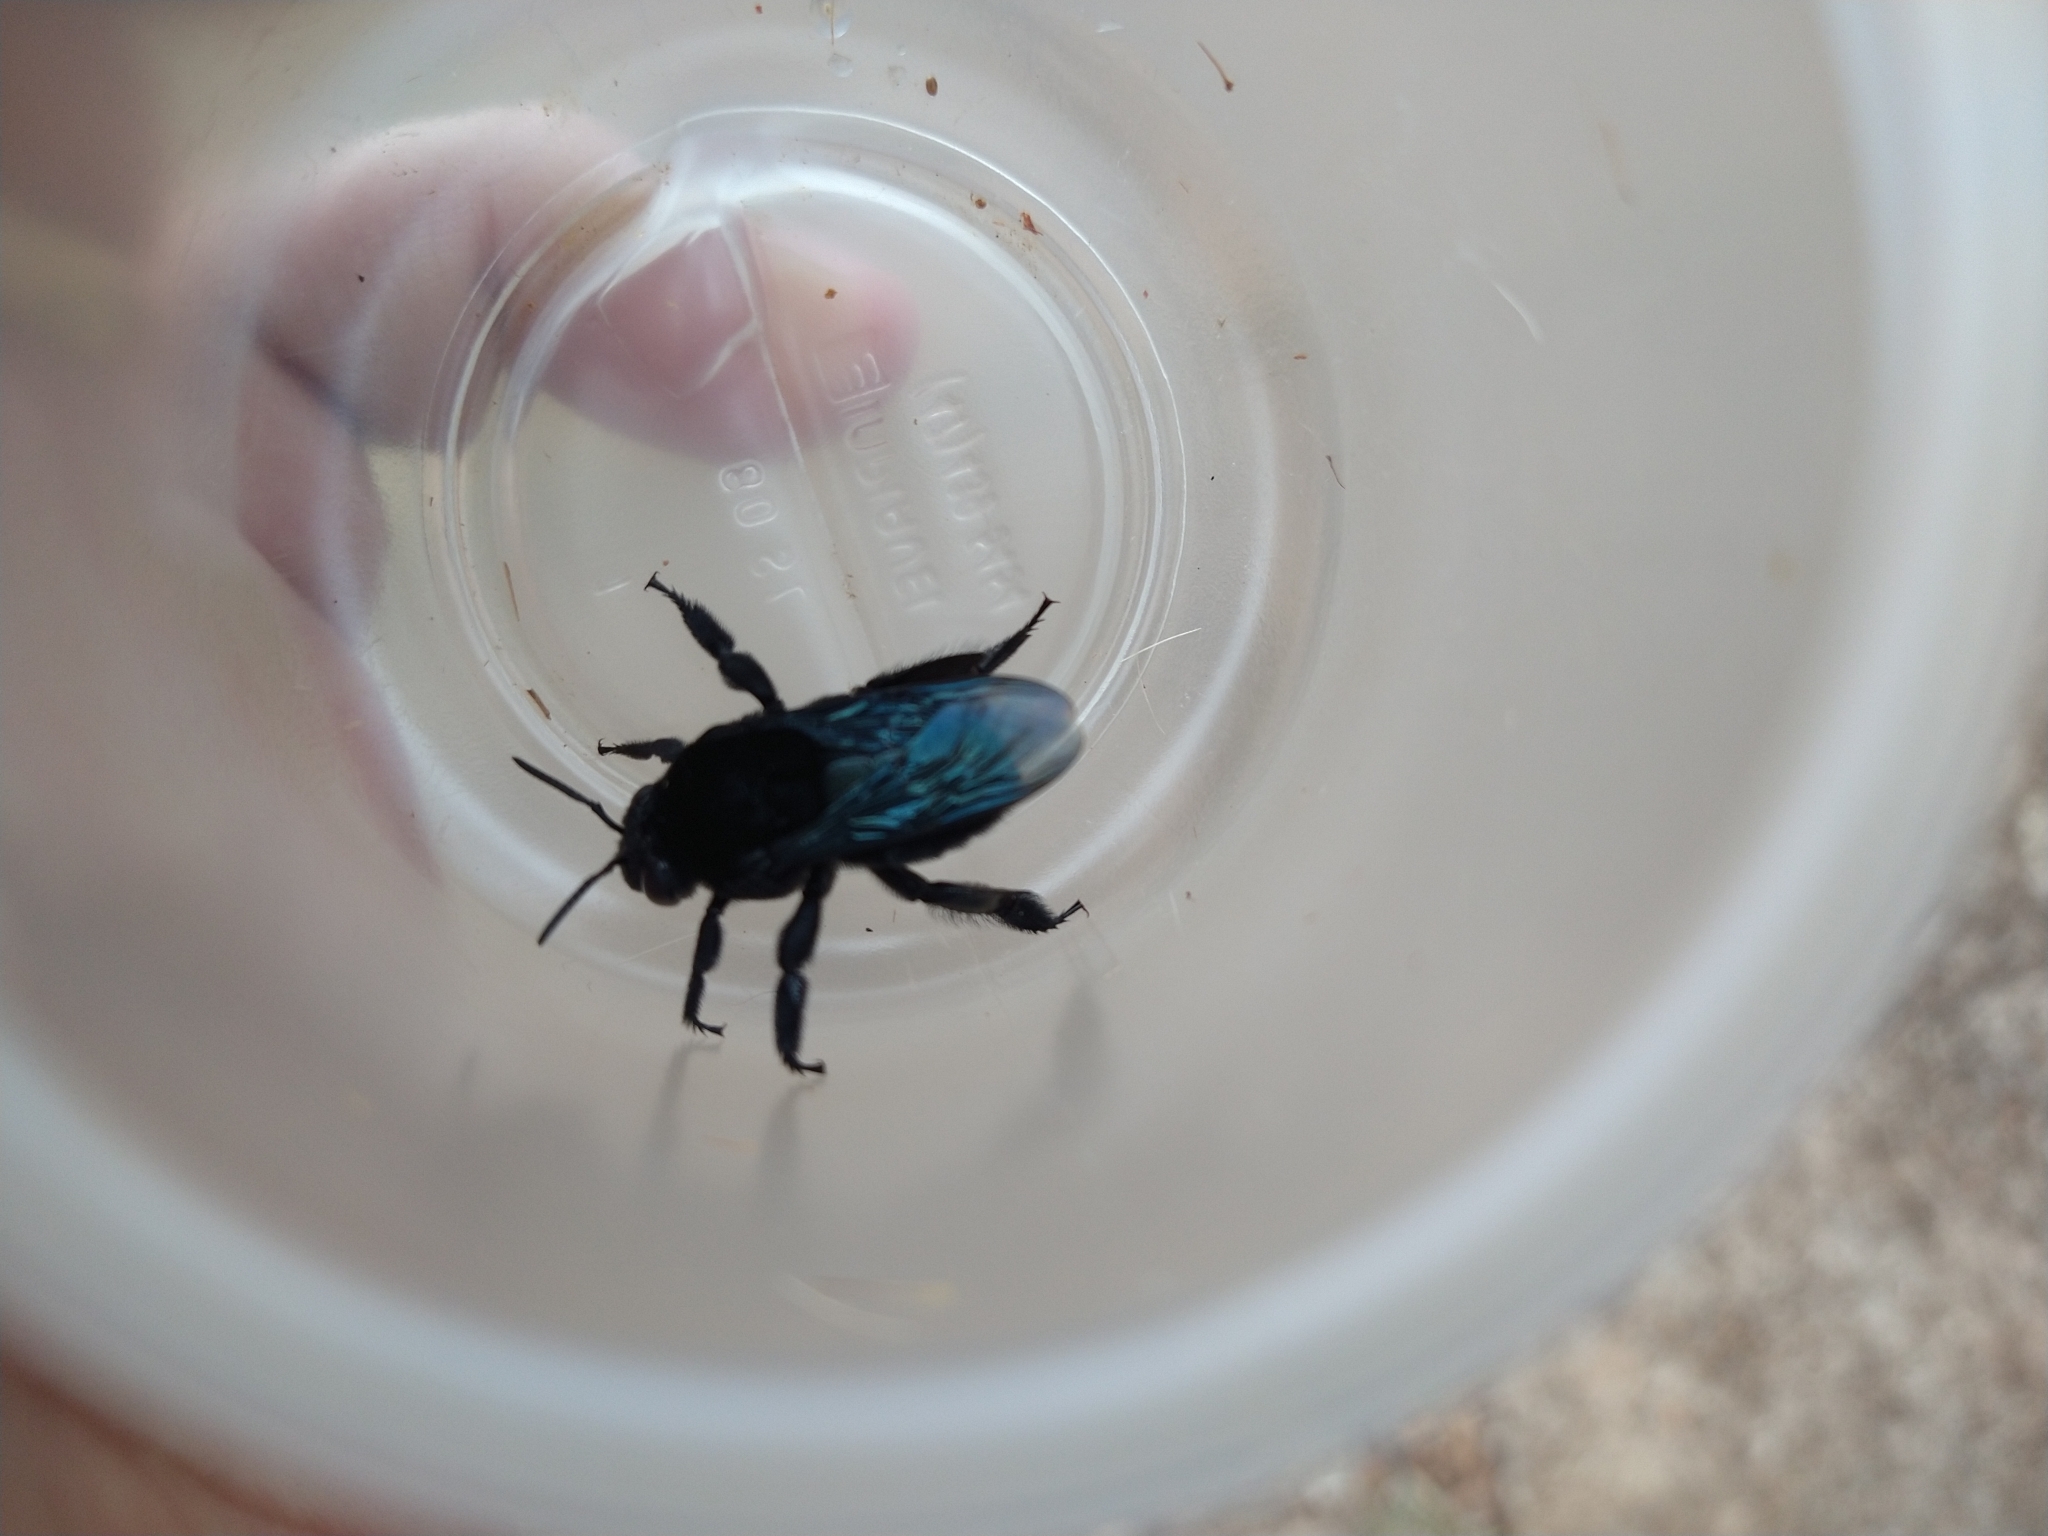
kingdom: Animalia
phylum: Arthropoda
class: Insecta
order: Hymenoptera
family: Apidae
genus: Eulaema
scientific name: Eulaema nigrita
